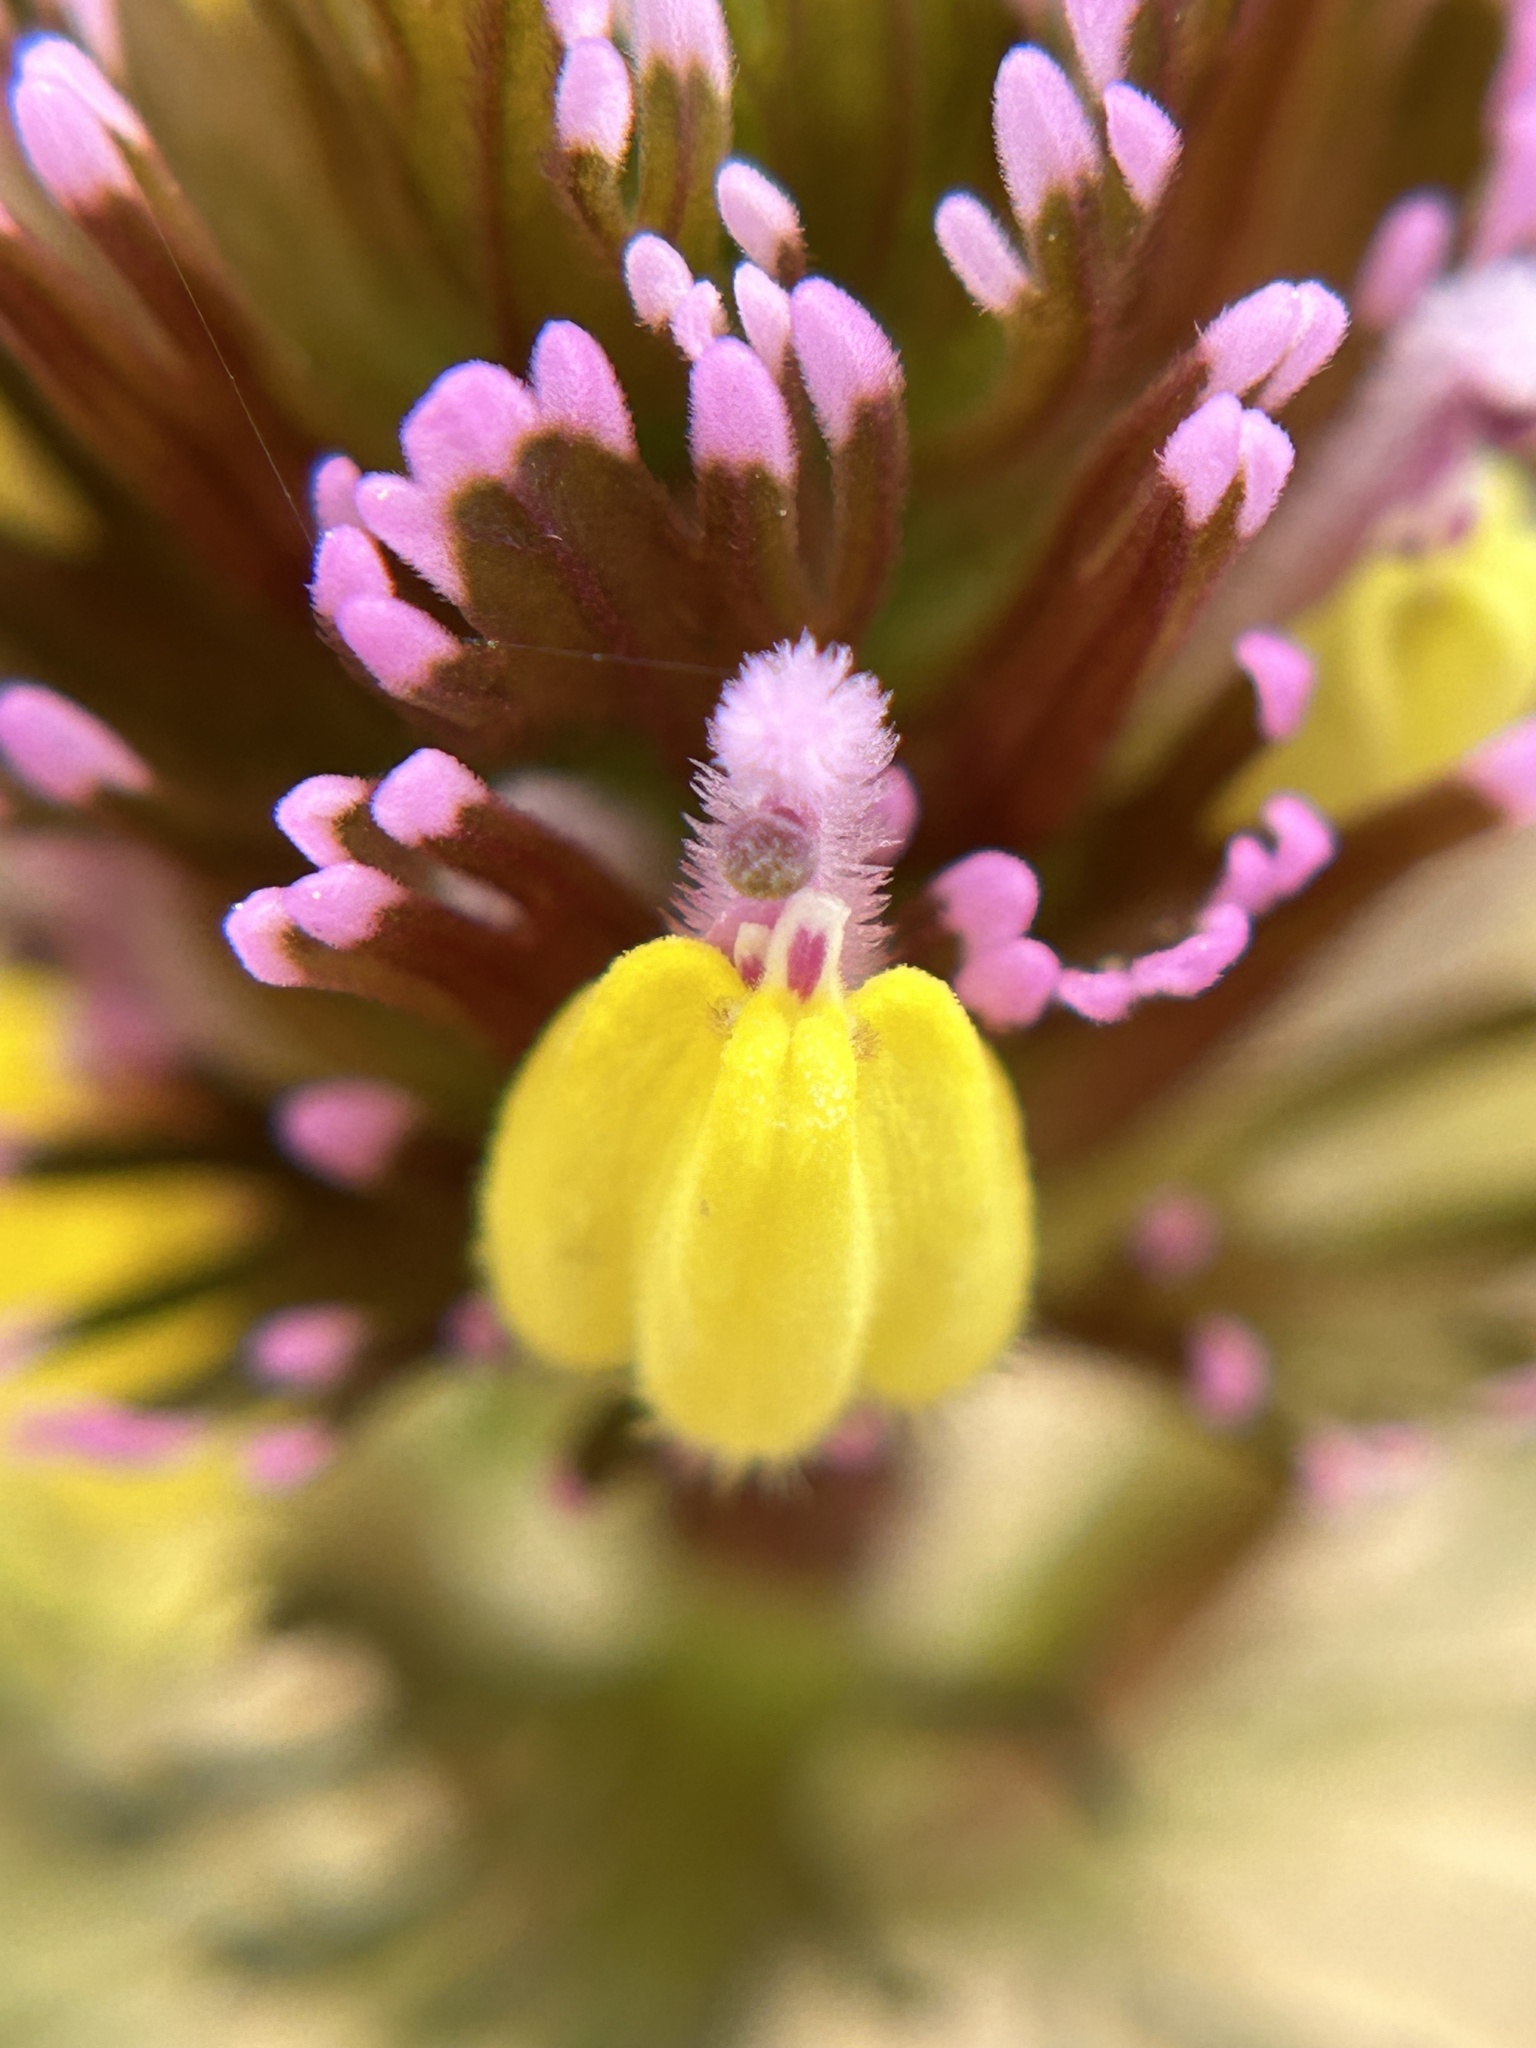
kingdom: Plantae
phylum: Tracheophyta
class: Magnoliopsida
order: Lamiales
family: Orobanchaceae
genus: Castilleja
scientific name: Castilleja exserta
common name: Purple owl-clover
